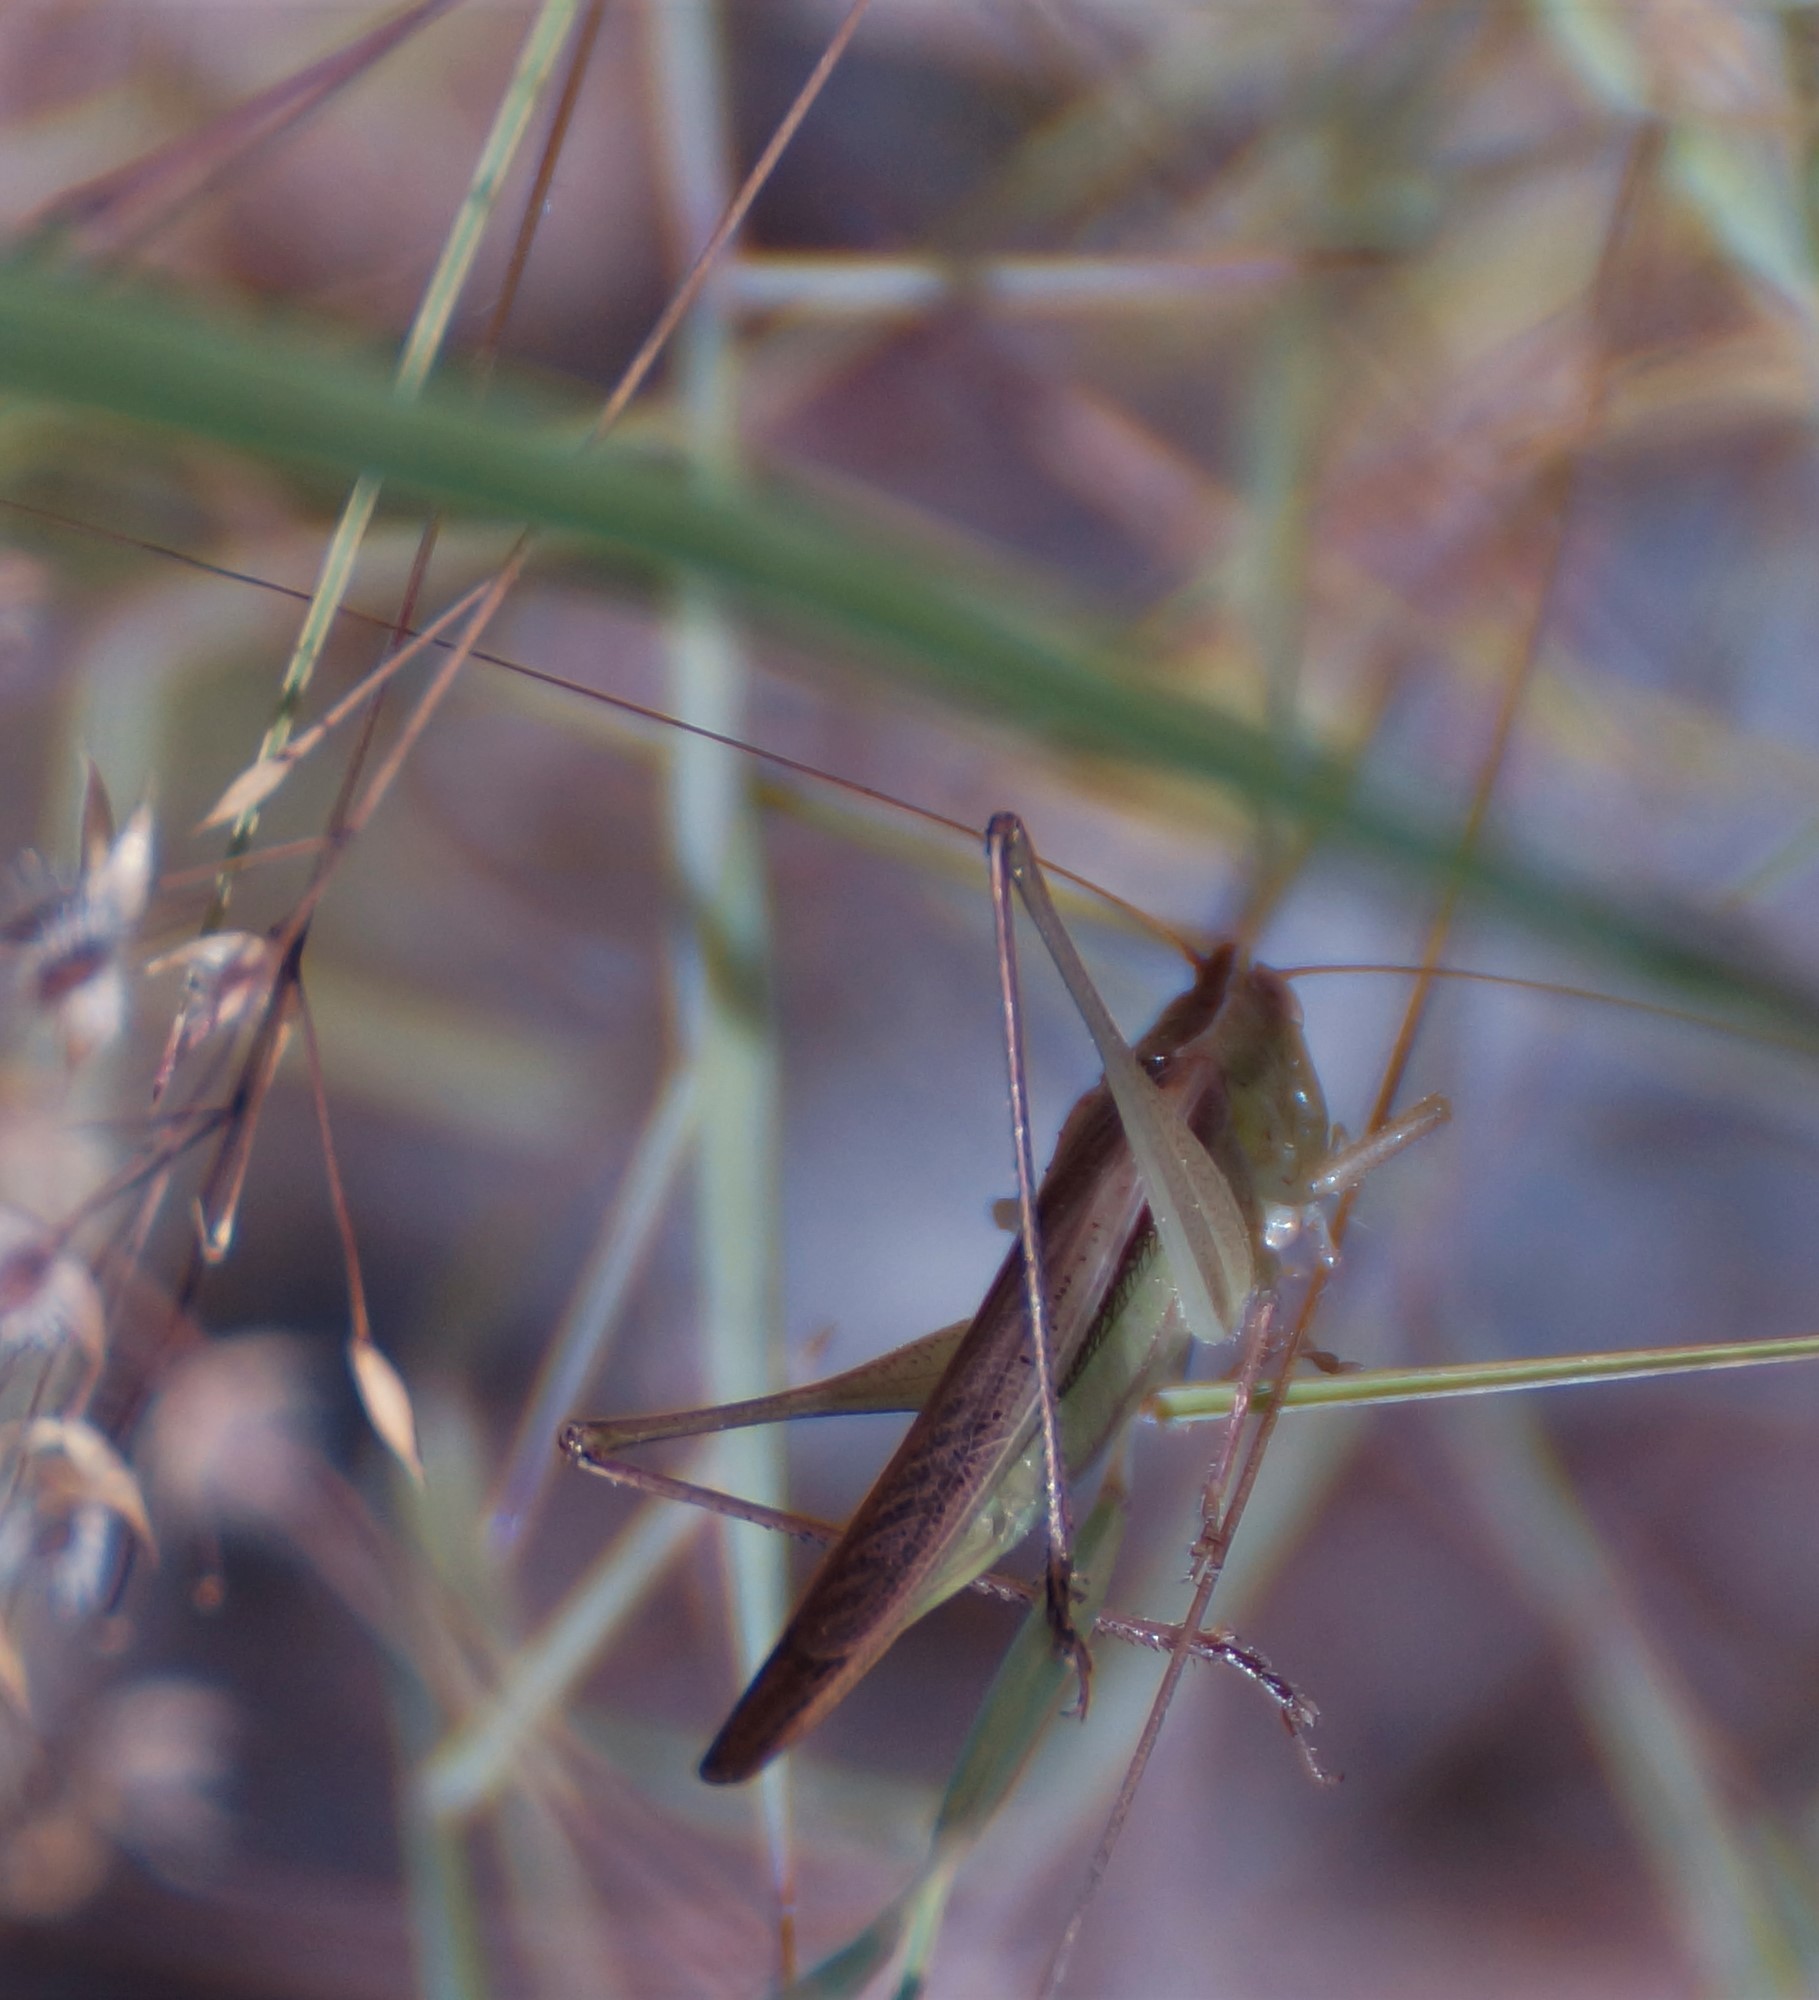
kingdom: Animalia
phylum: Arthropoda
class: Insecta
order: Orthoptera
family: Tettigoniidae
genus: Conocephalus
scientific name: Conocephalus upoluensis
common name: Upolu meadow katydid
